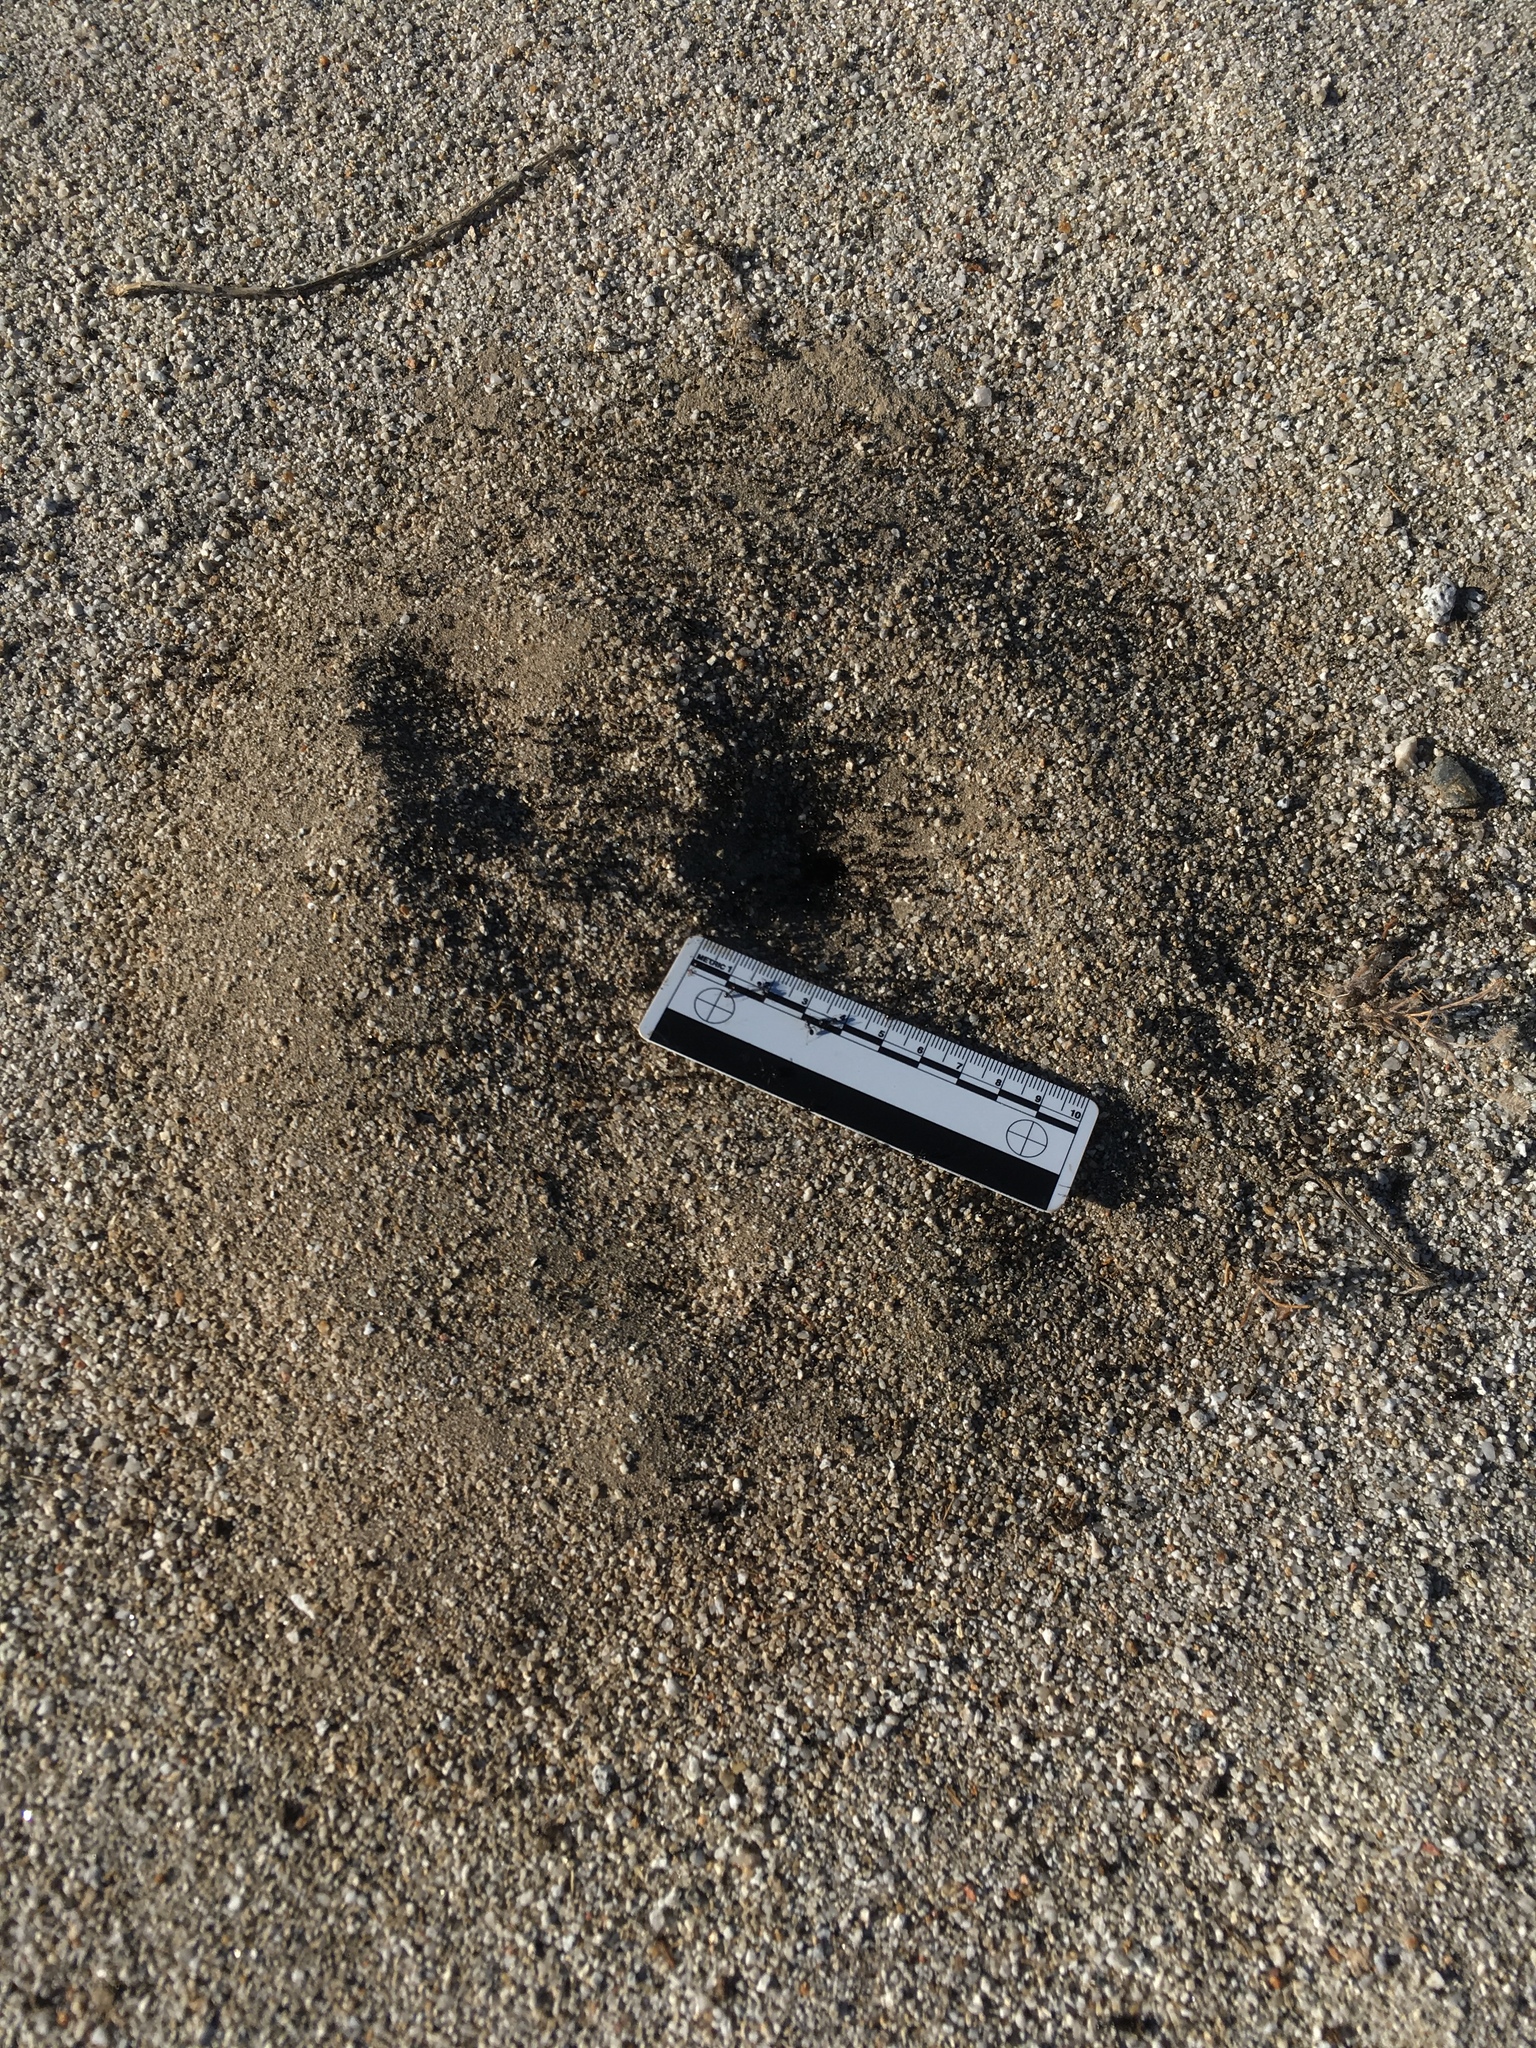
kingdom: Animalia
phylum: Arthropoda
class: Insecta
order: Hymenoptera
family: Formicidae
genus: Messor
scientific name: Messor pergandei
